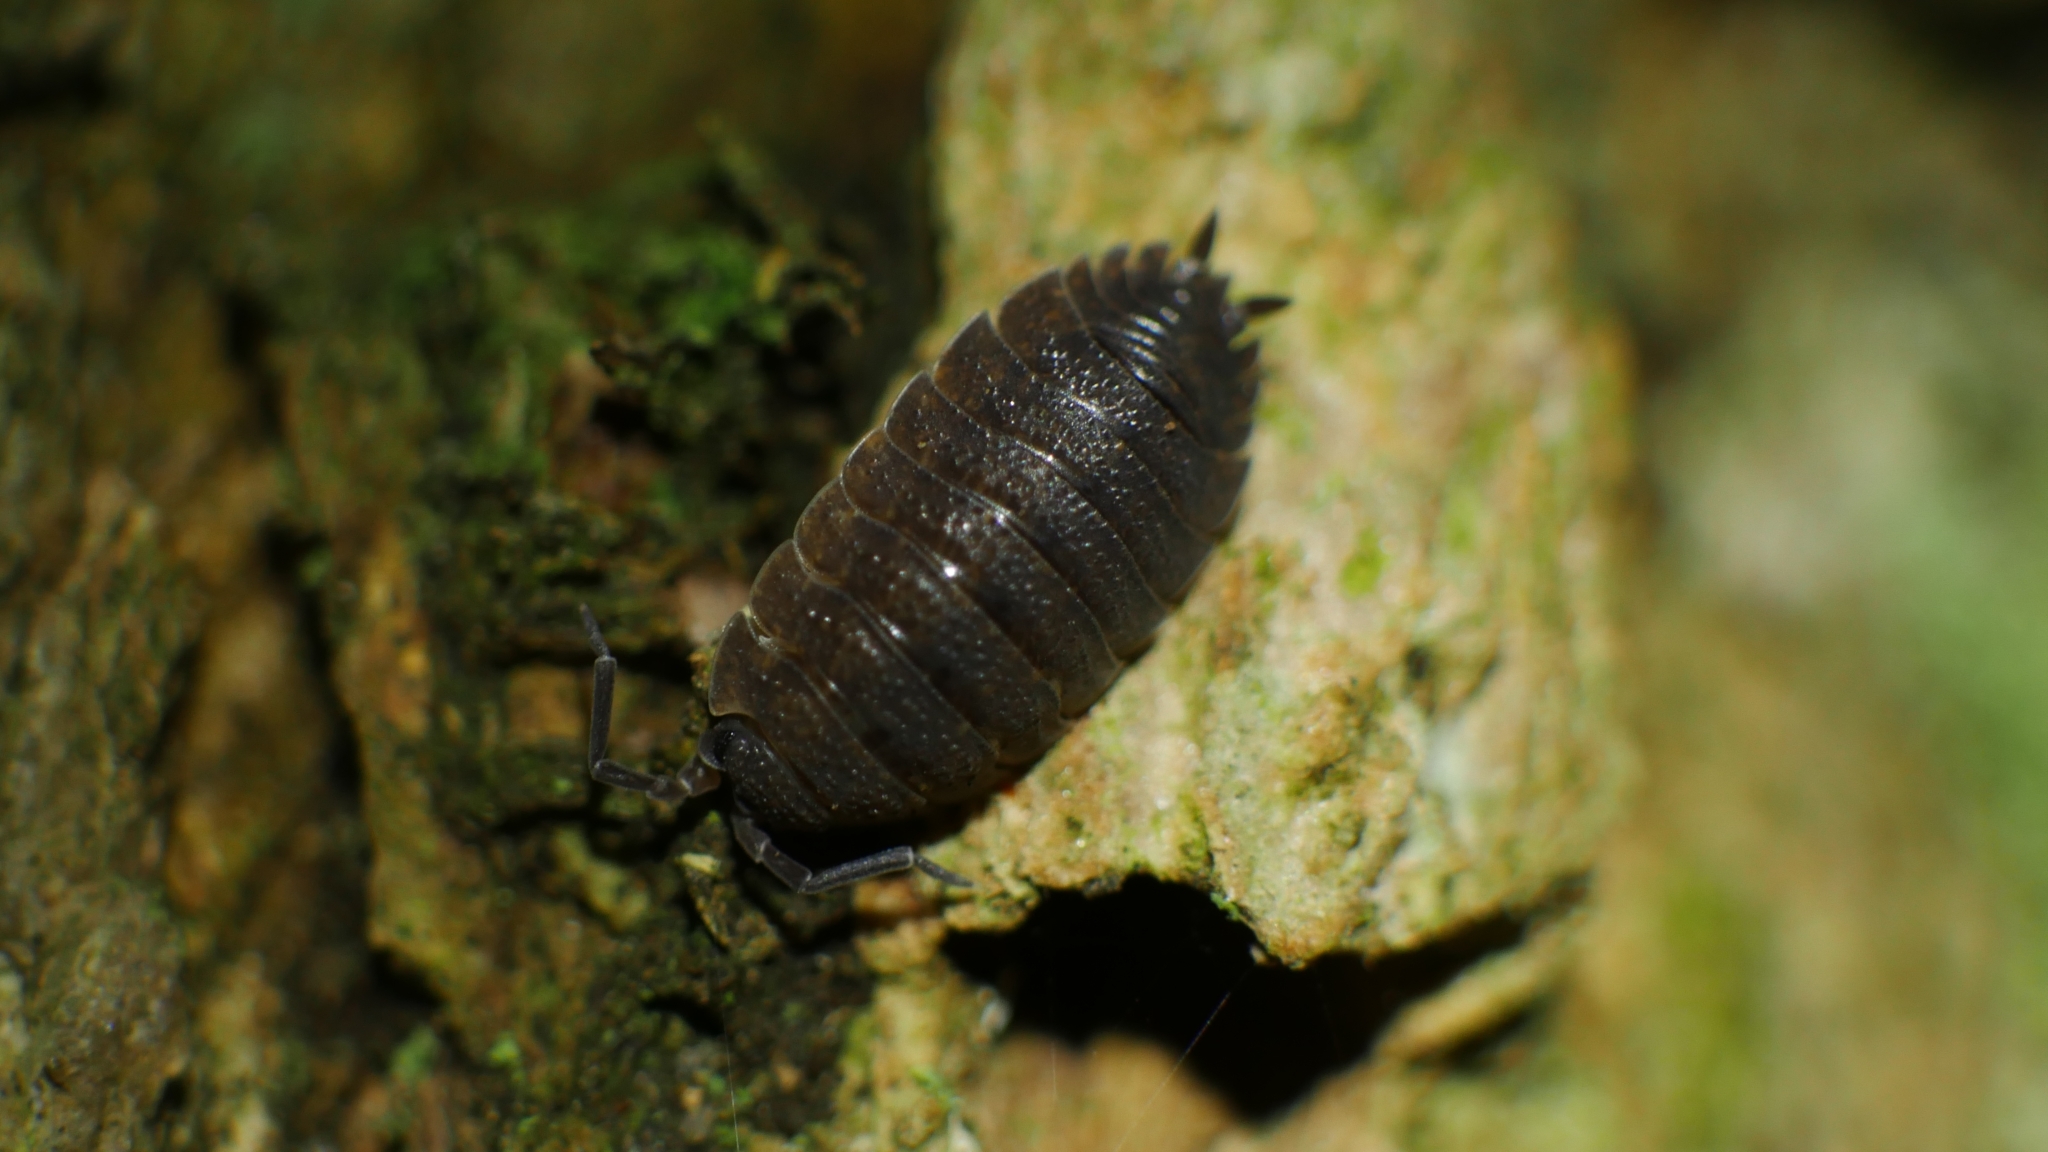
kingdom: Animalia
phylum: Arthropoda
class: Malacostraca
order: Isopoda
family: Porcellionidae
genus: Porcellio
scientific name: Porcellio scaber
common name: Common rough woodlouse
